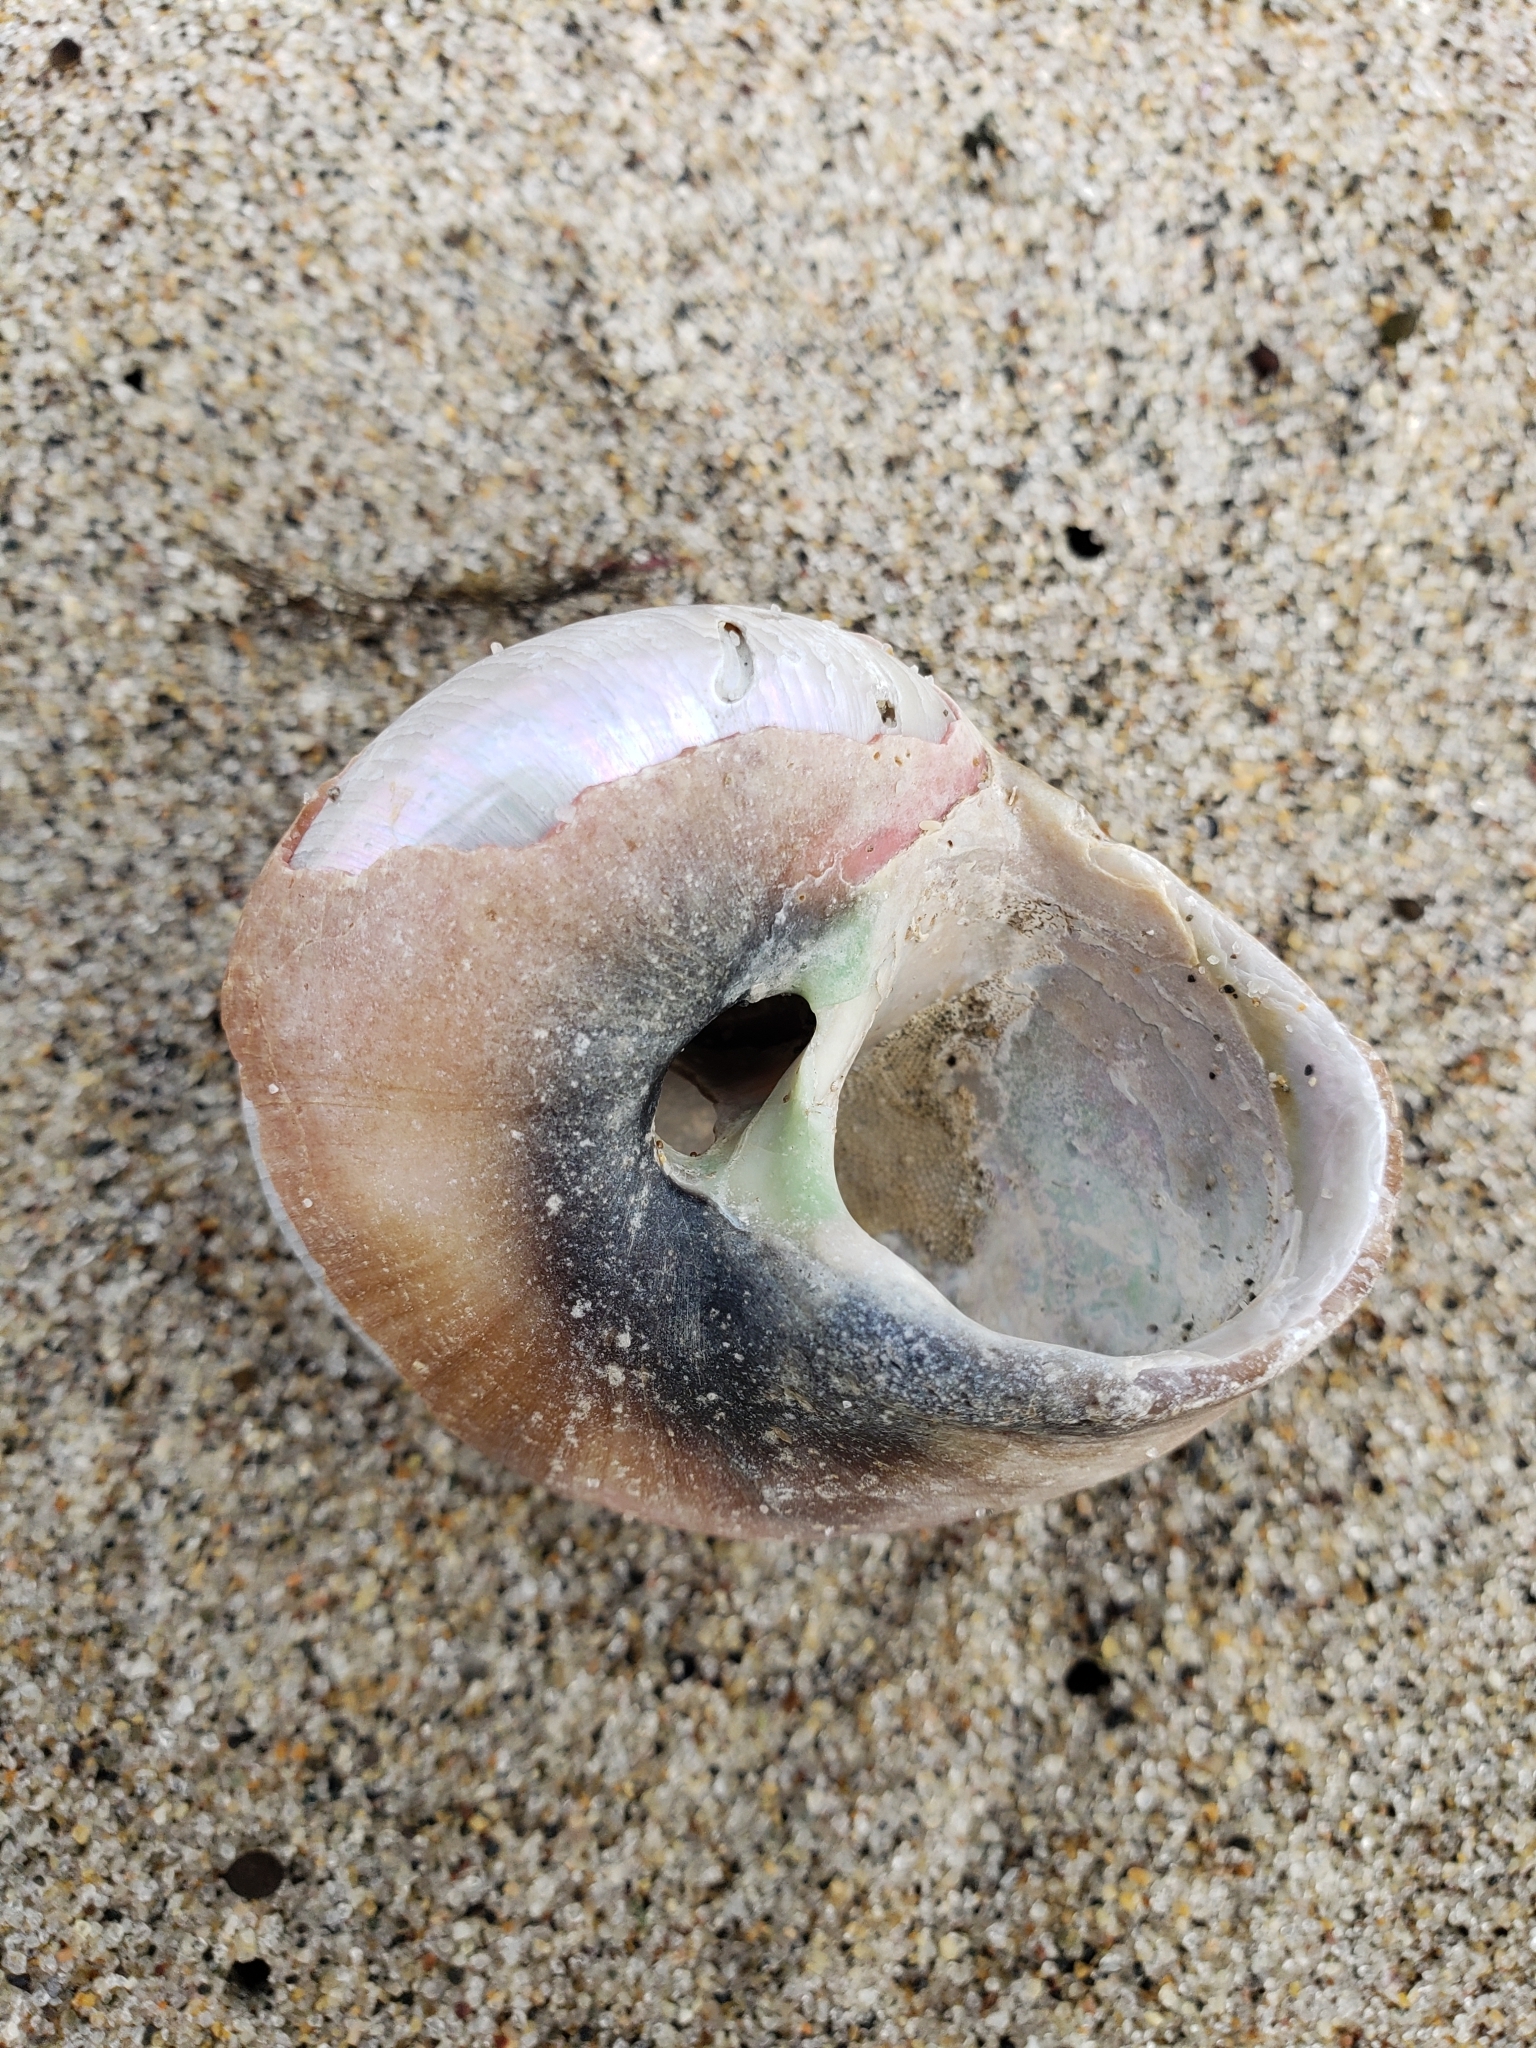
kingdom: Animalia
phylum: Mollusca
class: Gastropoda
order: Trochida
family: Tegulidae
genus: Norrisia
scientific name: Norrisia norrisii
